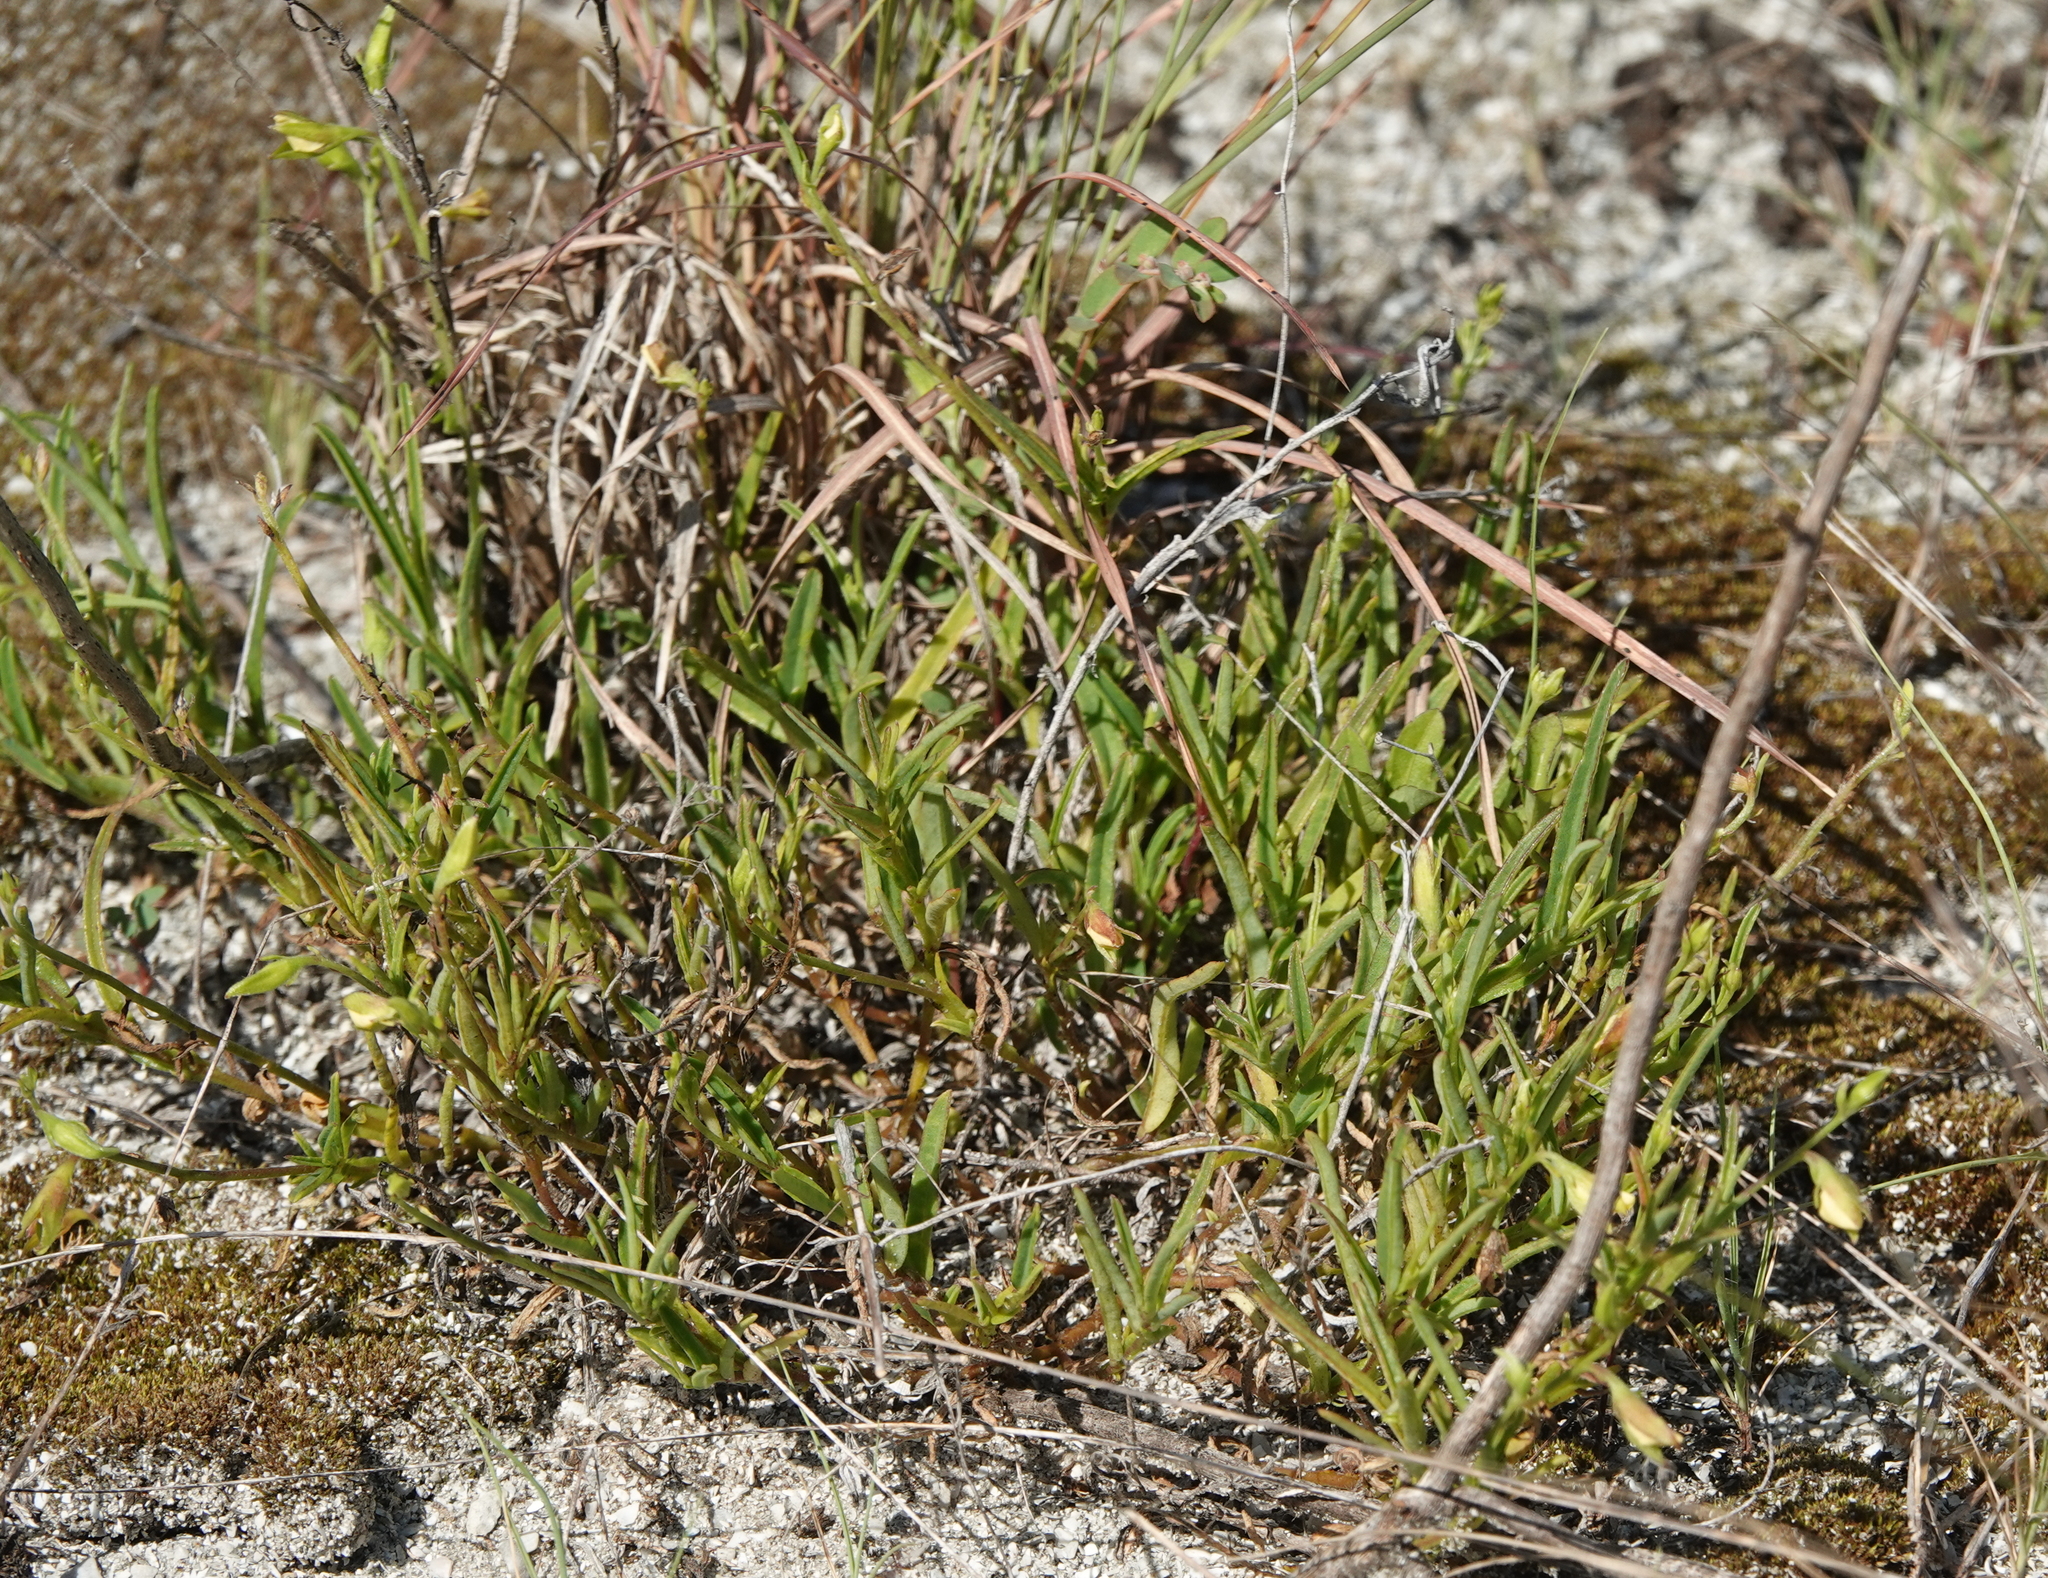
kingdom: Plantae
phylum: Tracheophyta
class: Magnoliopsida
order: Fabales
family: Fabaceae
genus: Crotalaria
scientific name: Crotalaria rotundifolia
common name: Prostrate rattlebox
